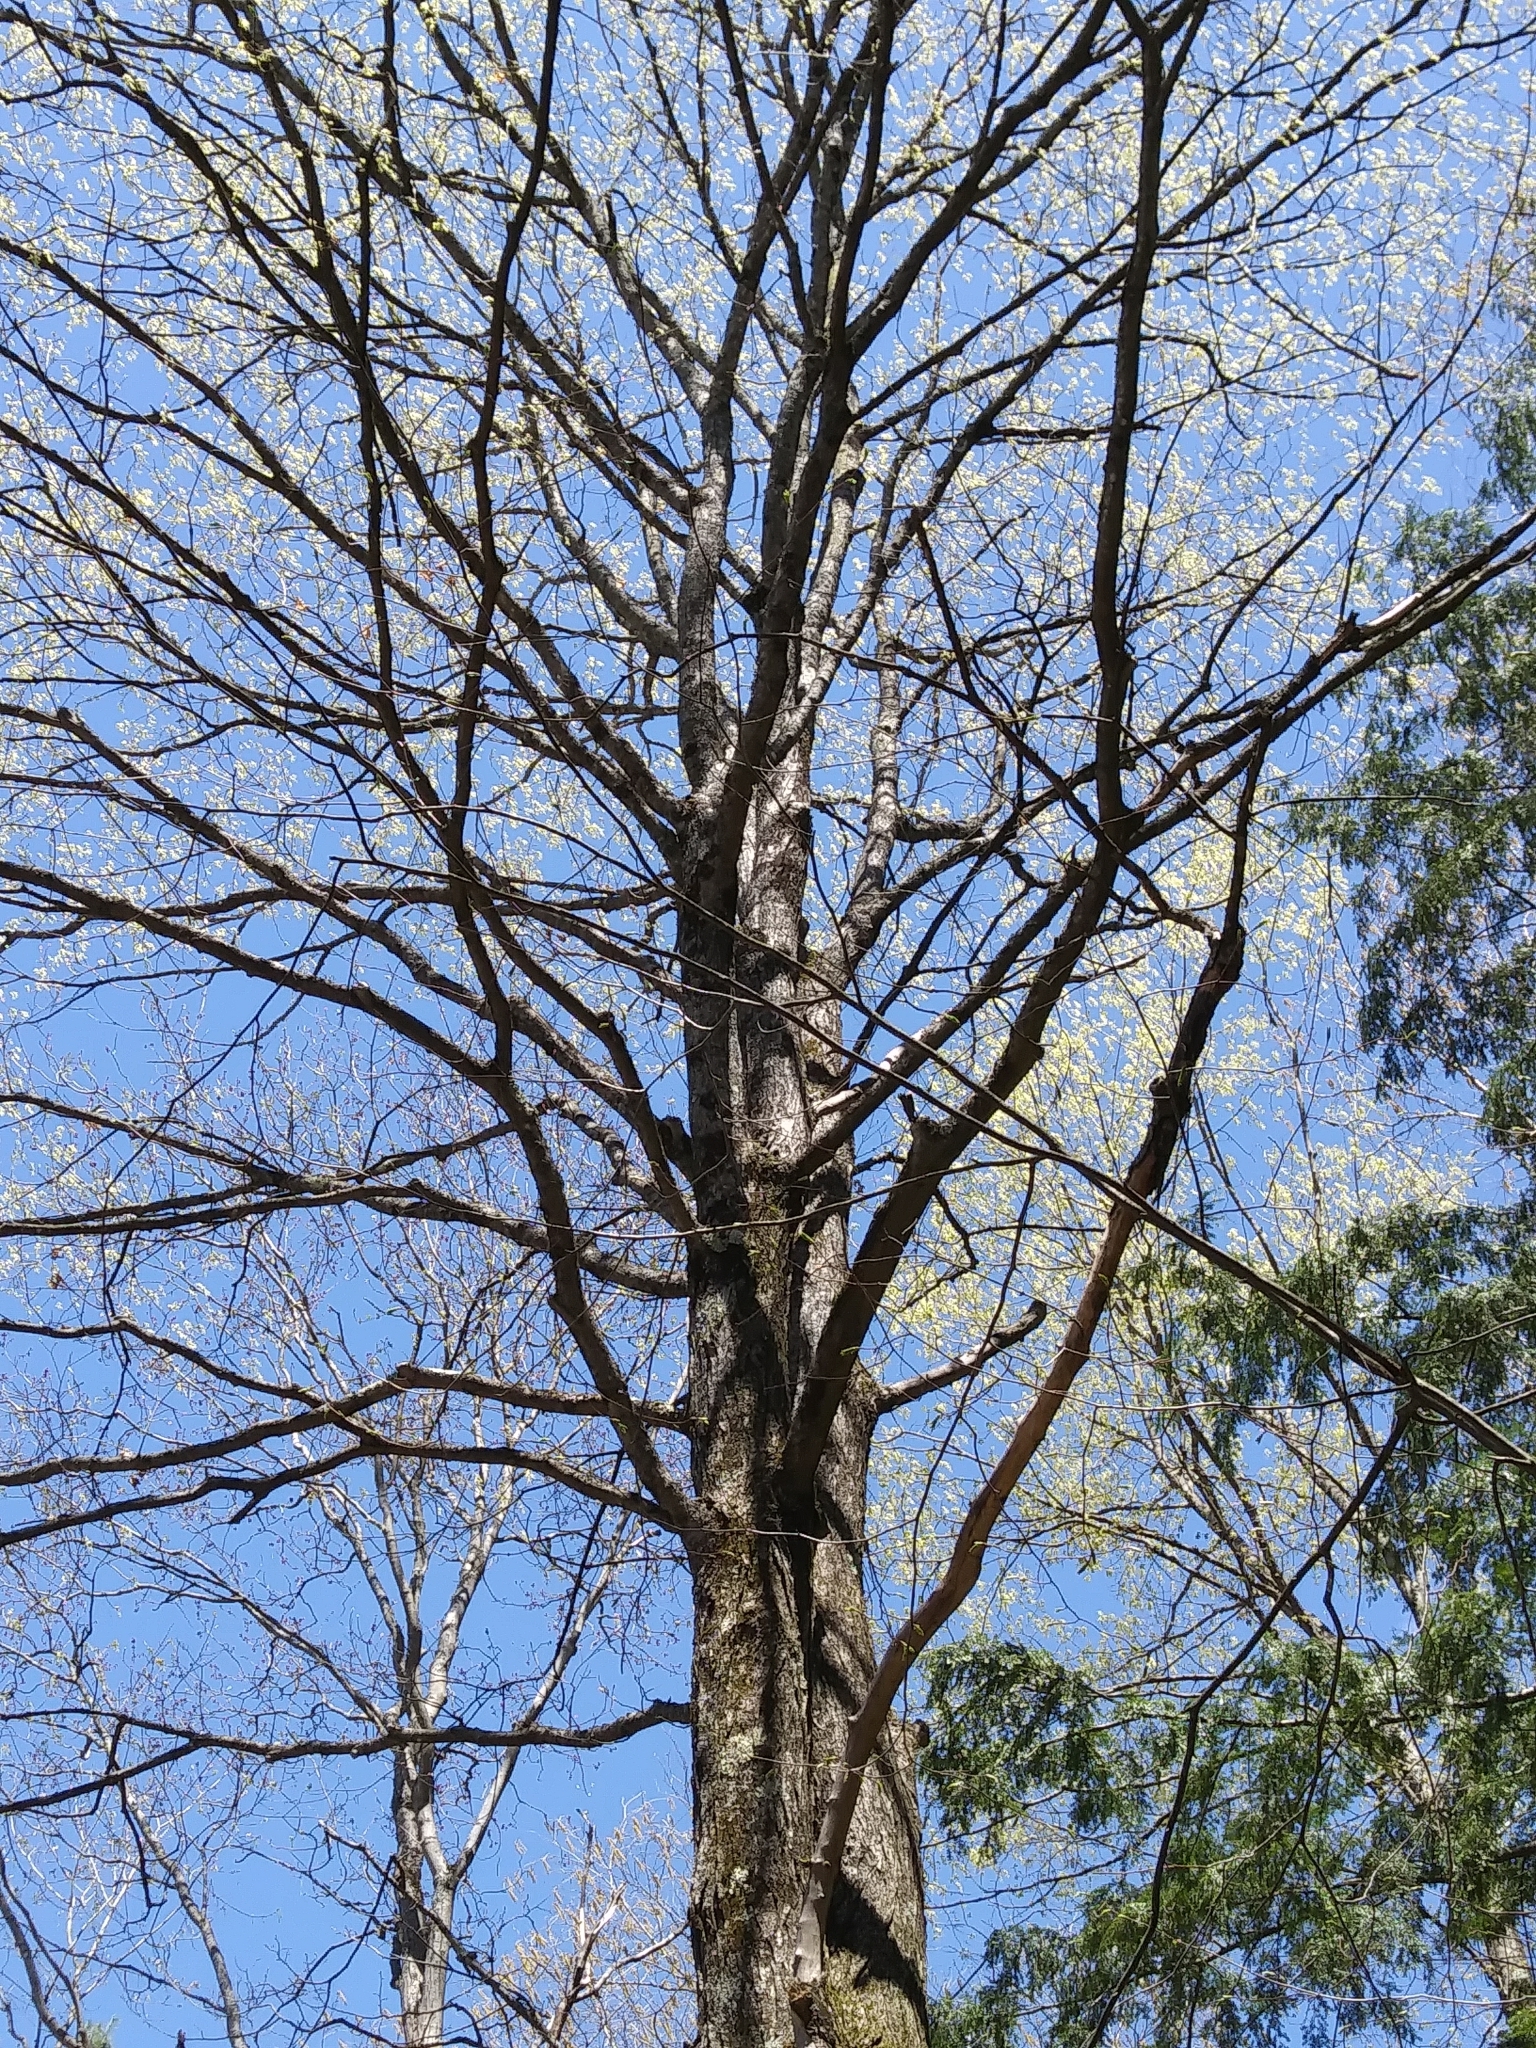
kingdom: Plantae
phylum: Tracheophyta
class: Magnoliopsida
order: Sapindales
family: Sapindaceae
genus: Acer
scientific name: Acer saccharum
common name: Sugar maple
